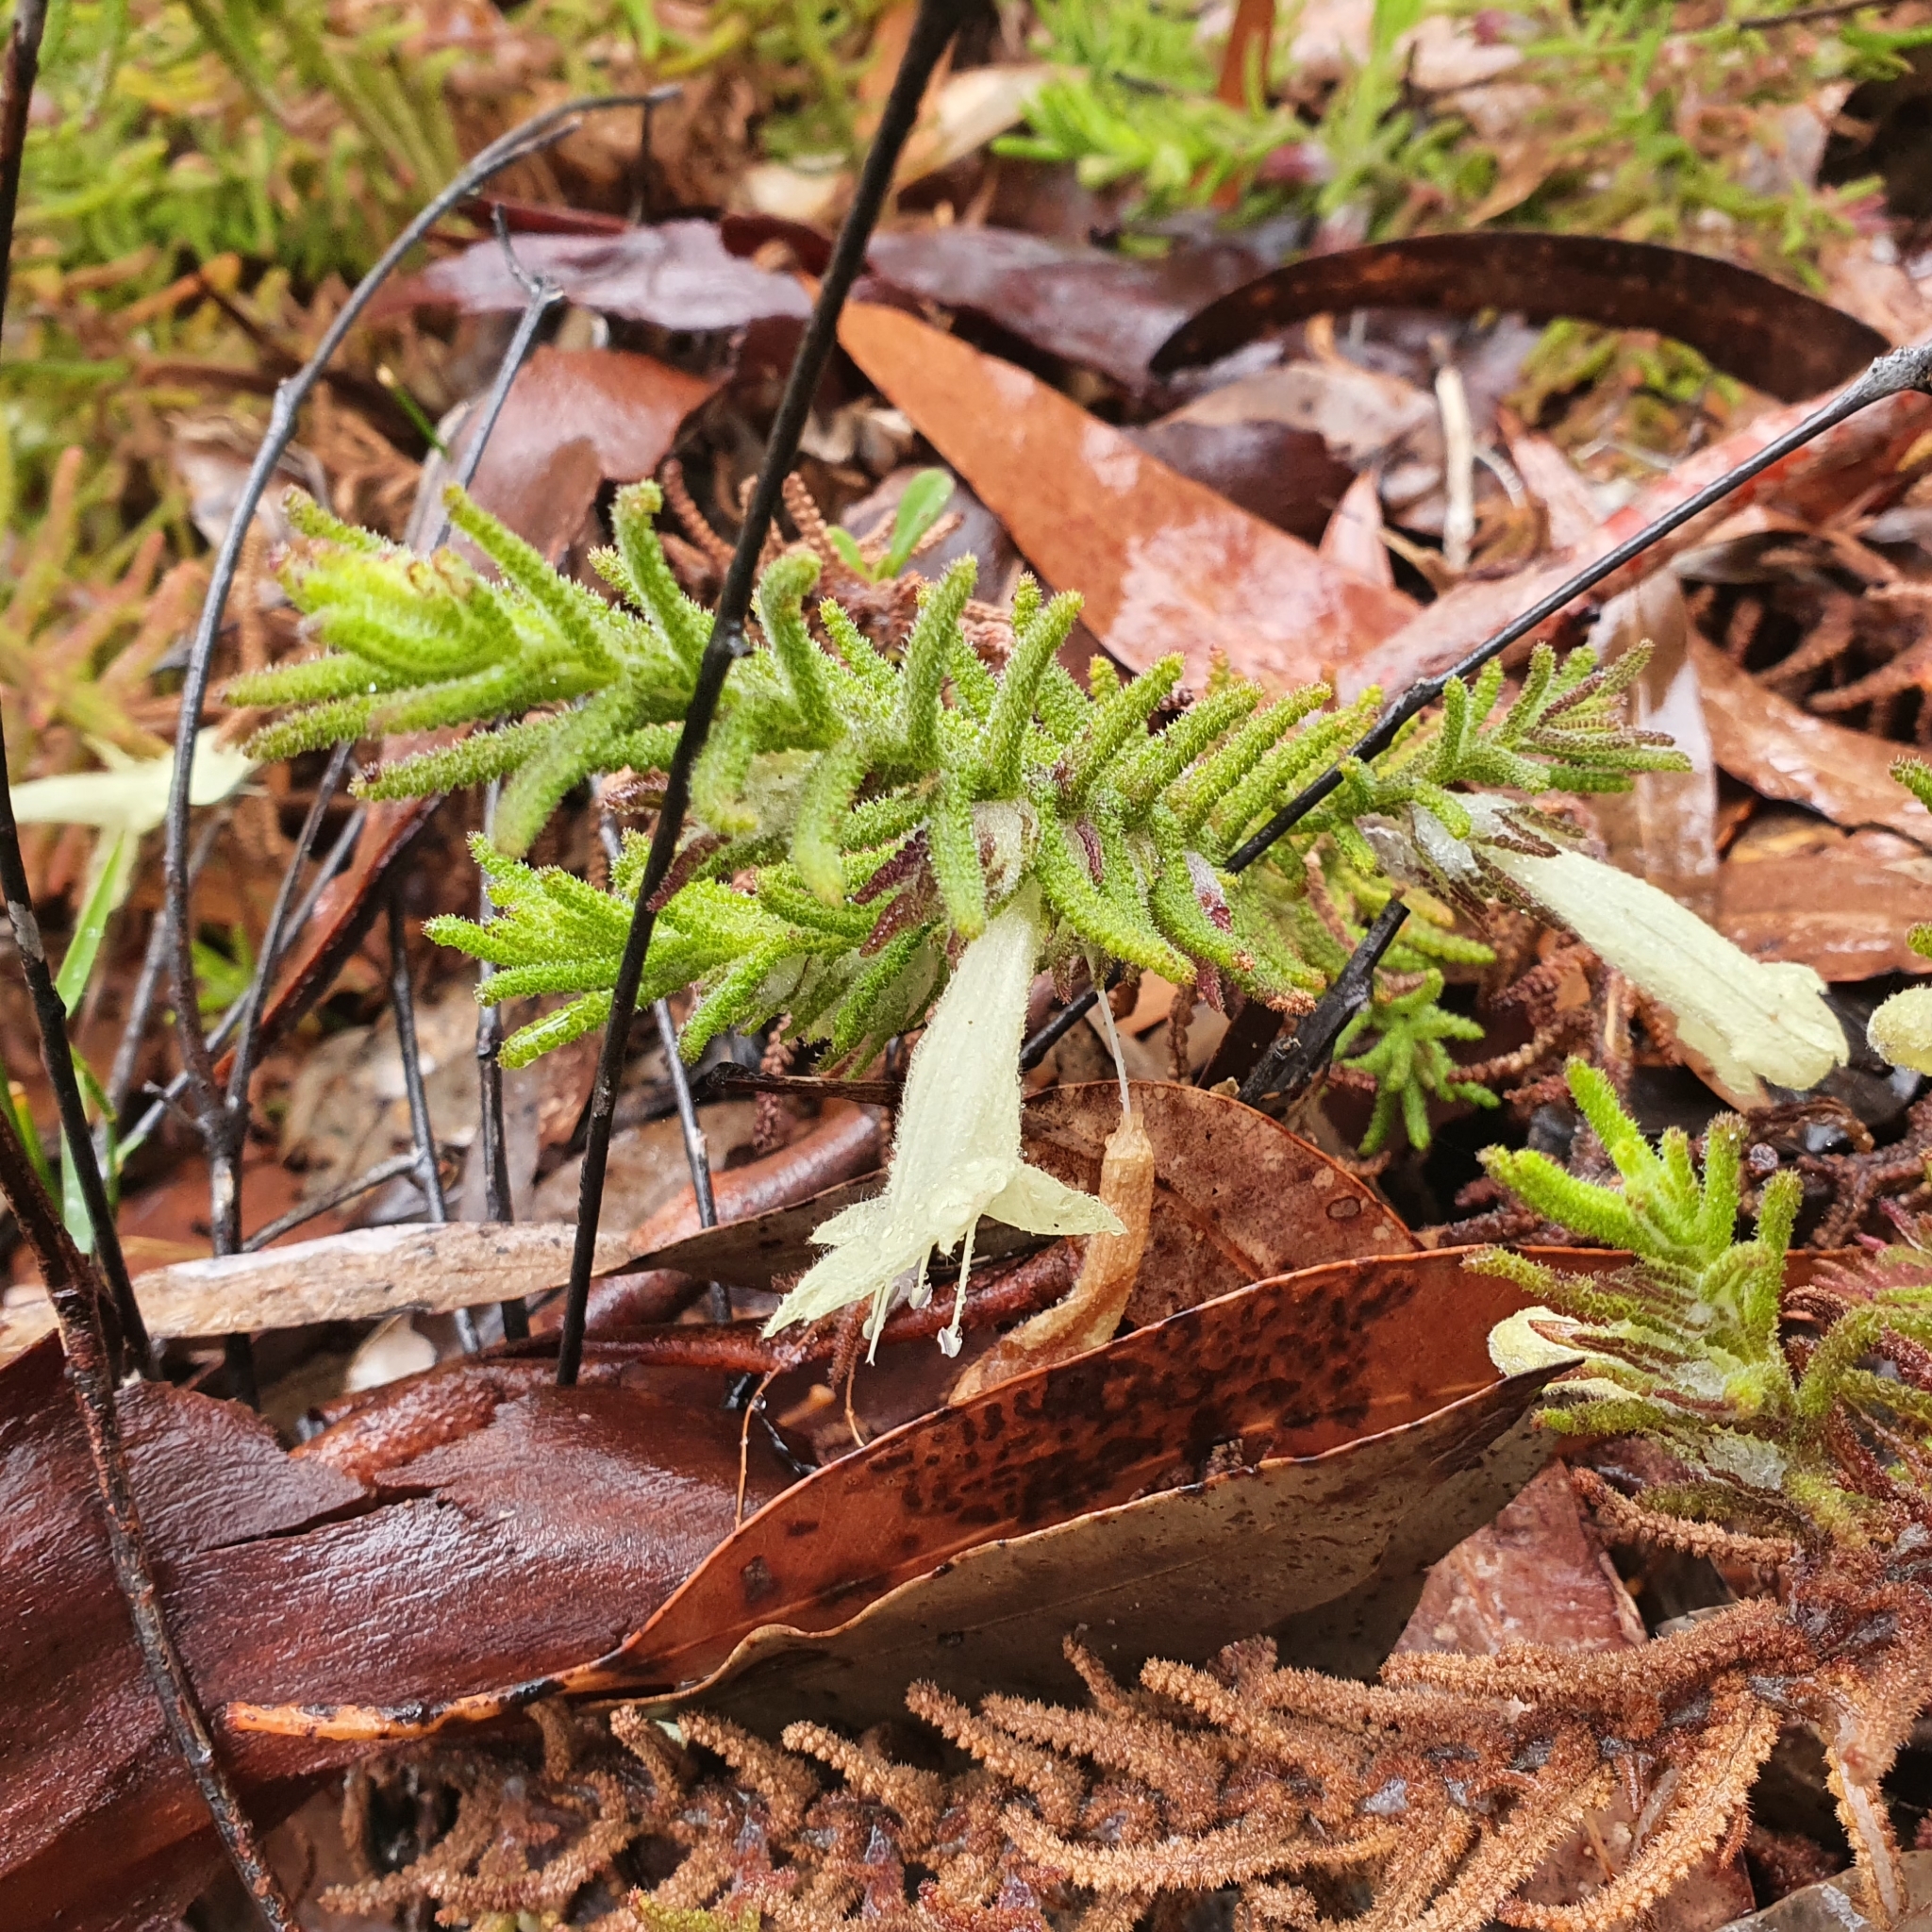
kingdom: Plantae
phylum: Tracheophyta
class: Magnoliopsida
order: Lamiales
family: Lamiaceae
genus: Chloanthes
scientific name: Chloanthes stoechadis
